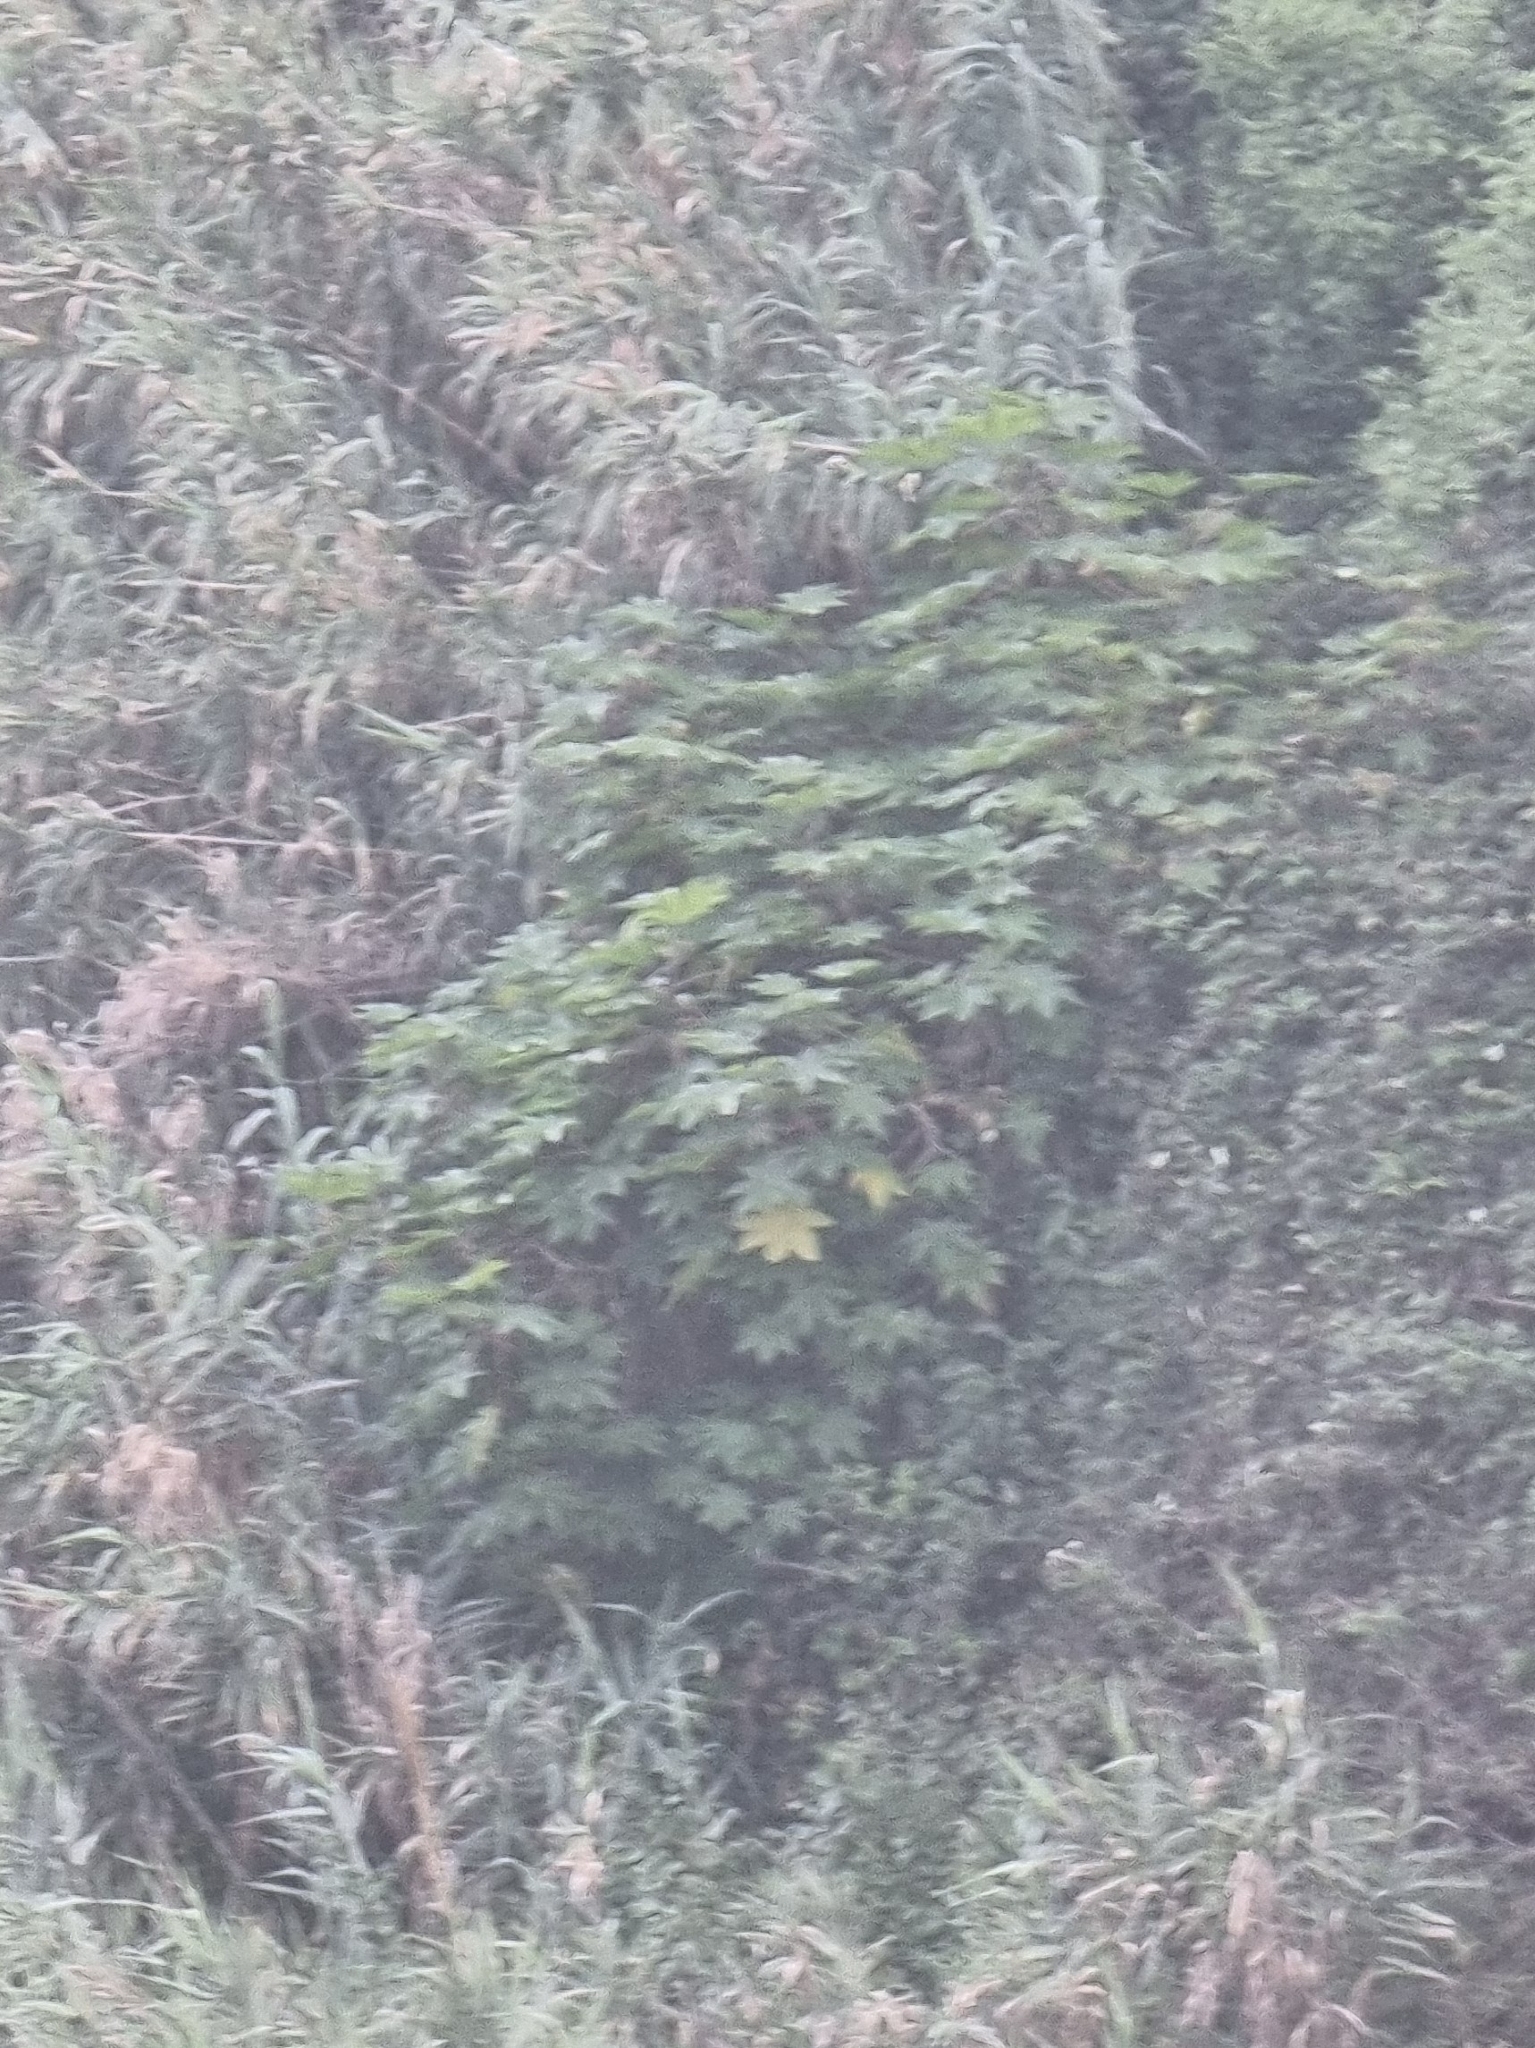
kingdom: Plantae
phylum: Tracheophyta
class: Magnoliopsida
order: Malpighiales
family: Euphorbiaceae
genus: Ricinus
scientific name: Ricinus communis
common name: Castor-oil-plant
